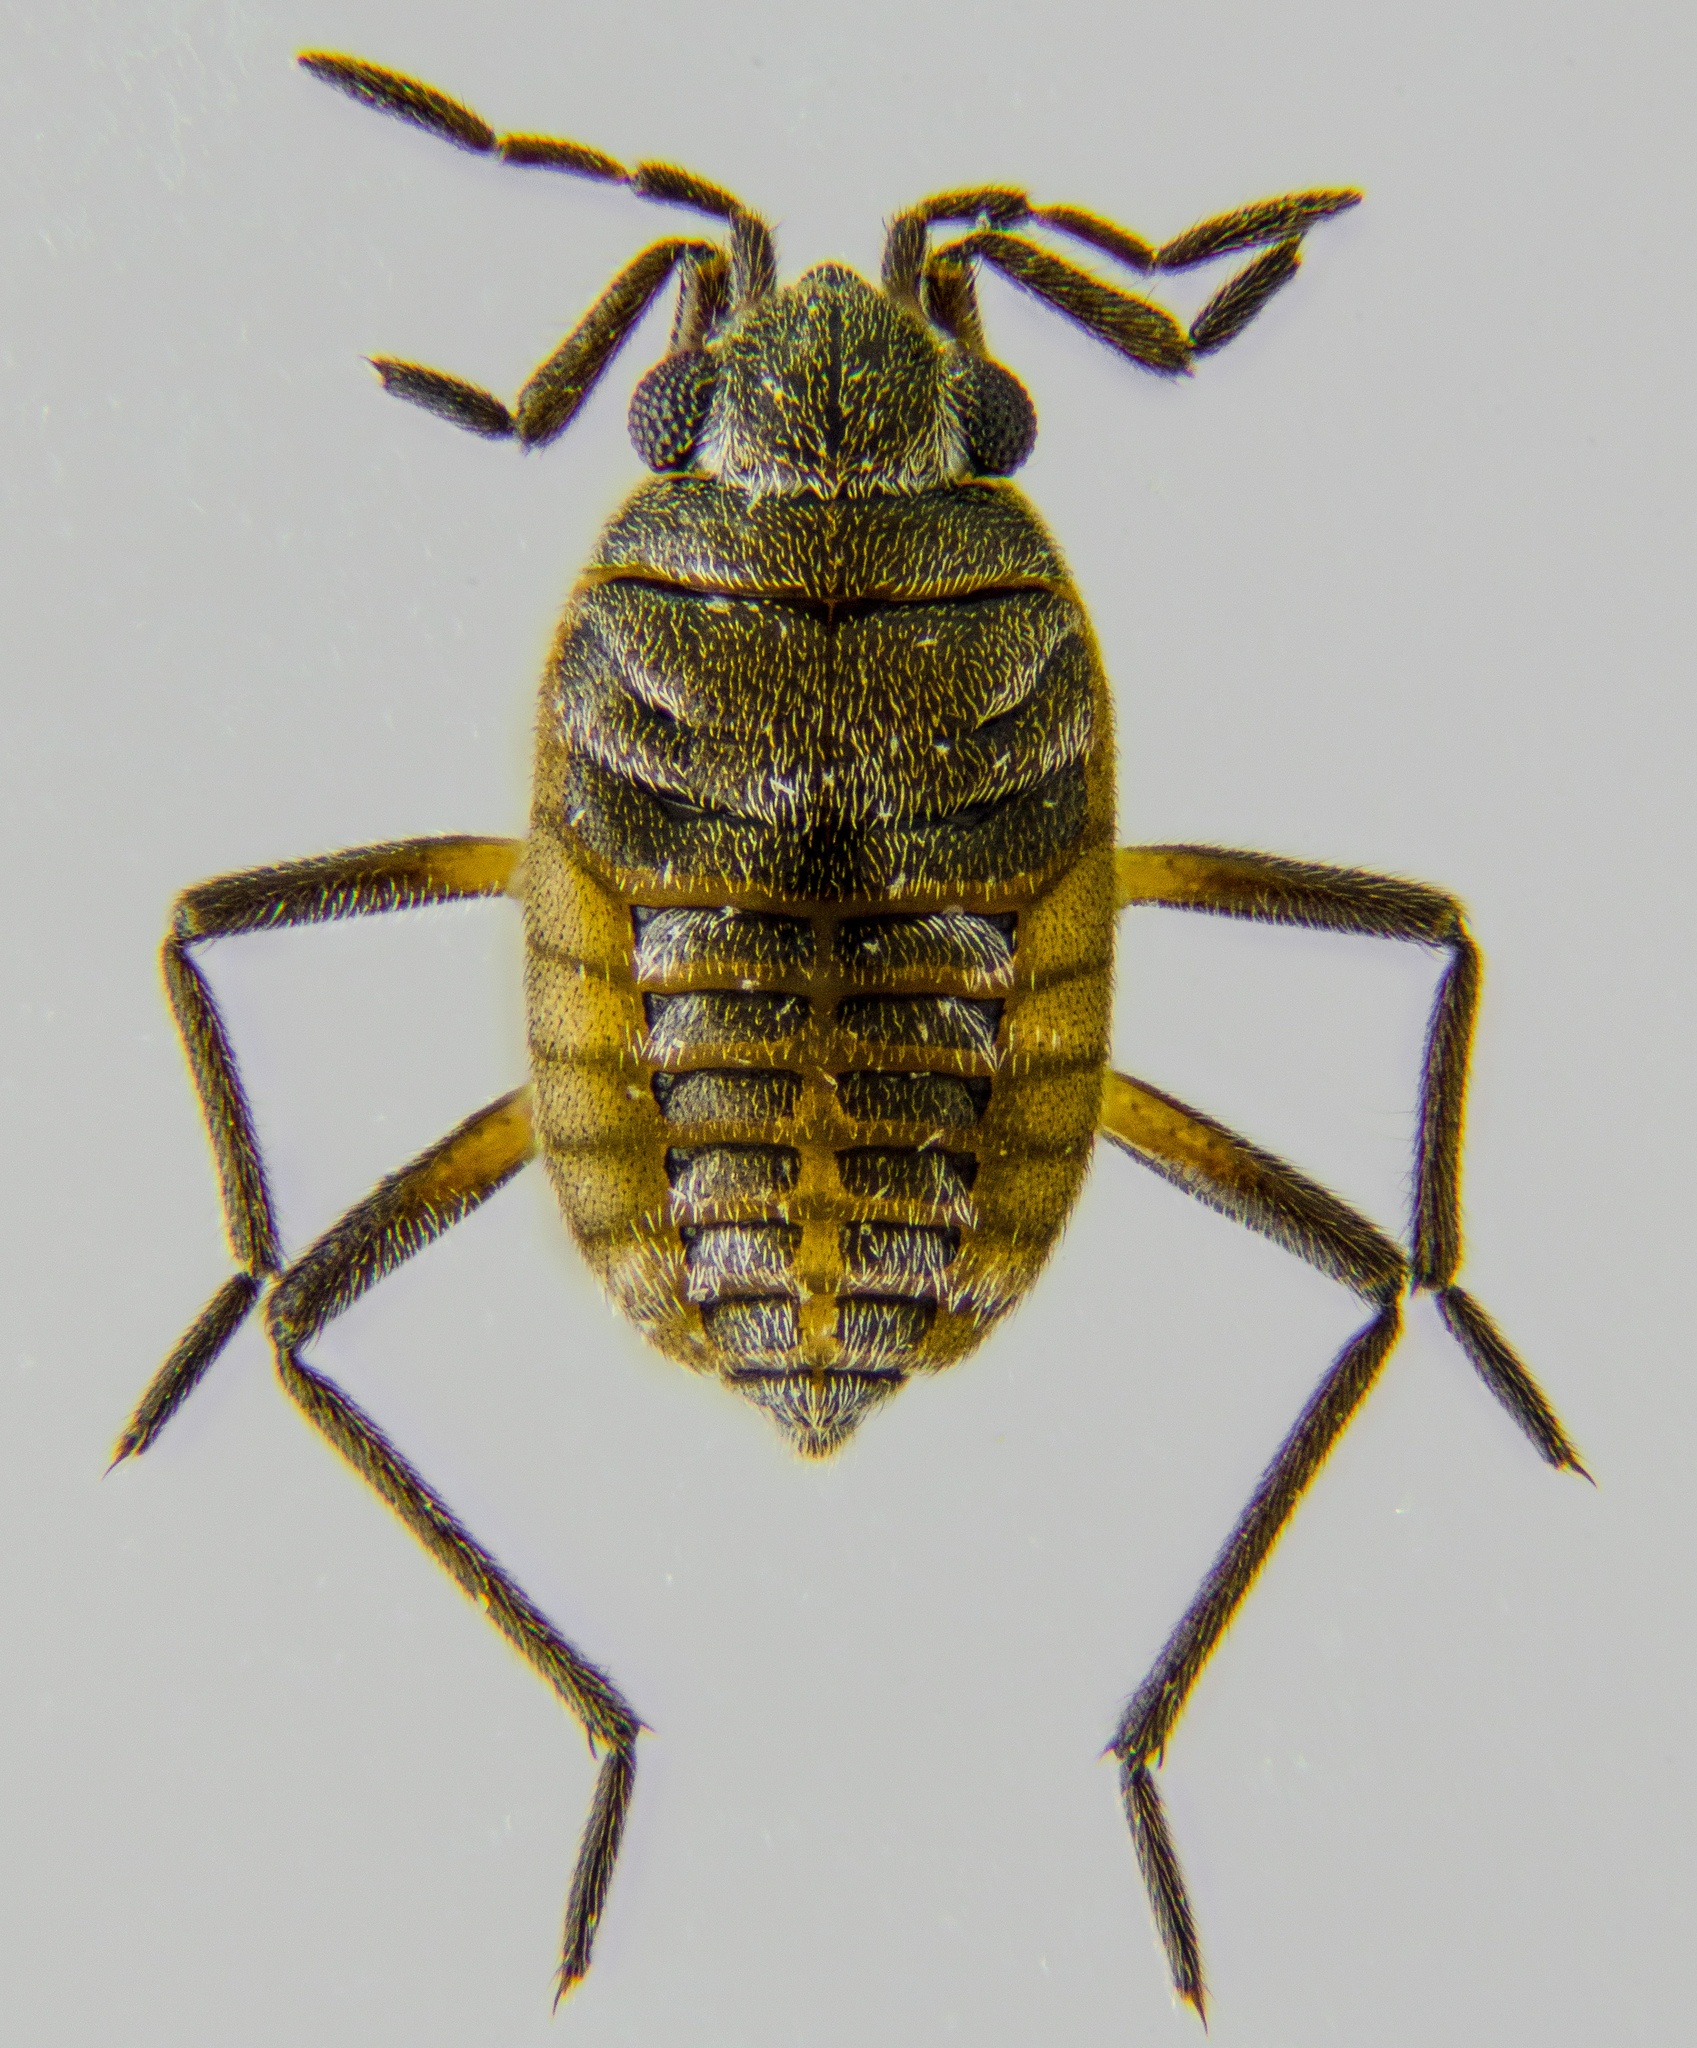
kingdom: Animalia
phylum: Arthropoda
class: Insecta
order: Hemiptera
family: Veliidae
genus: Microvelia
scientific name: Microvelia
